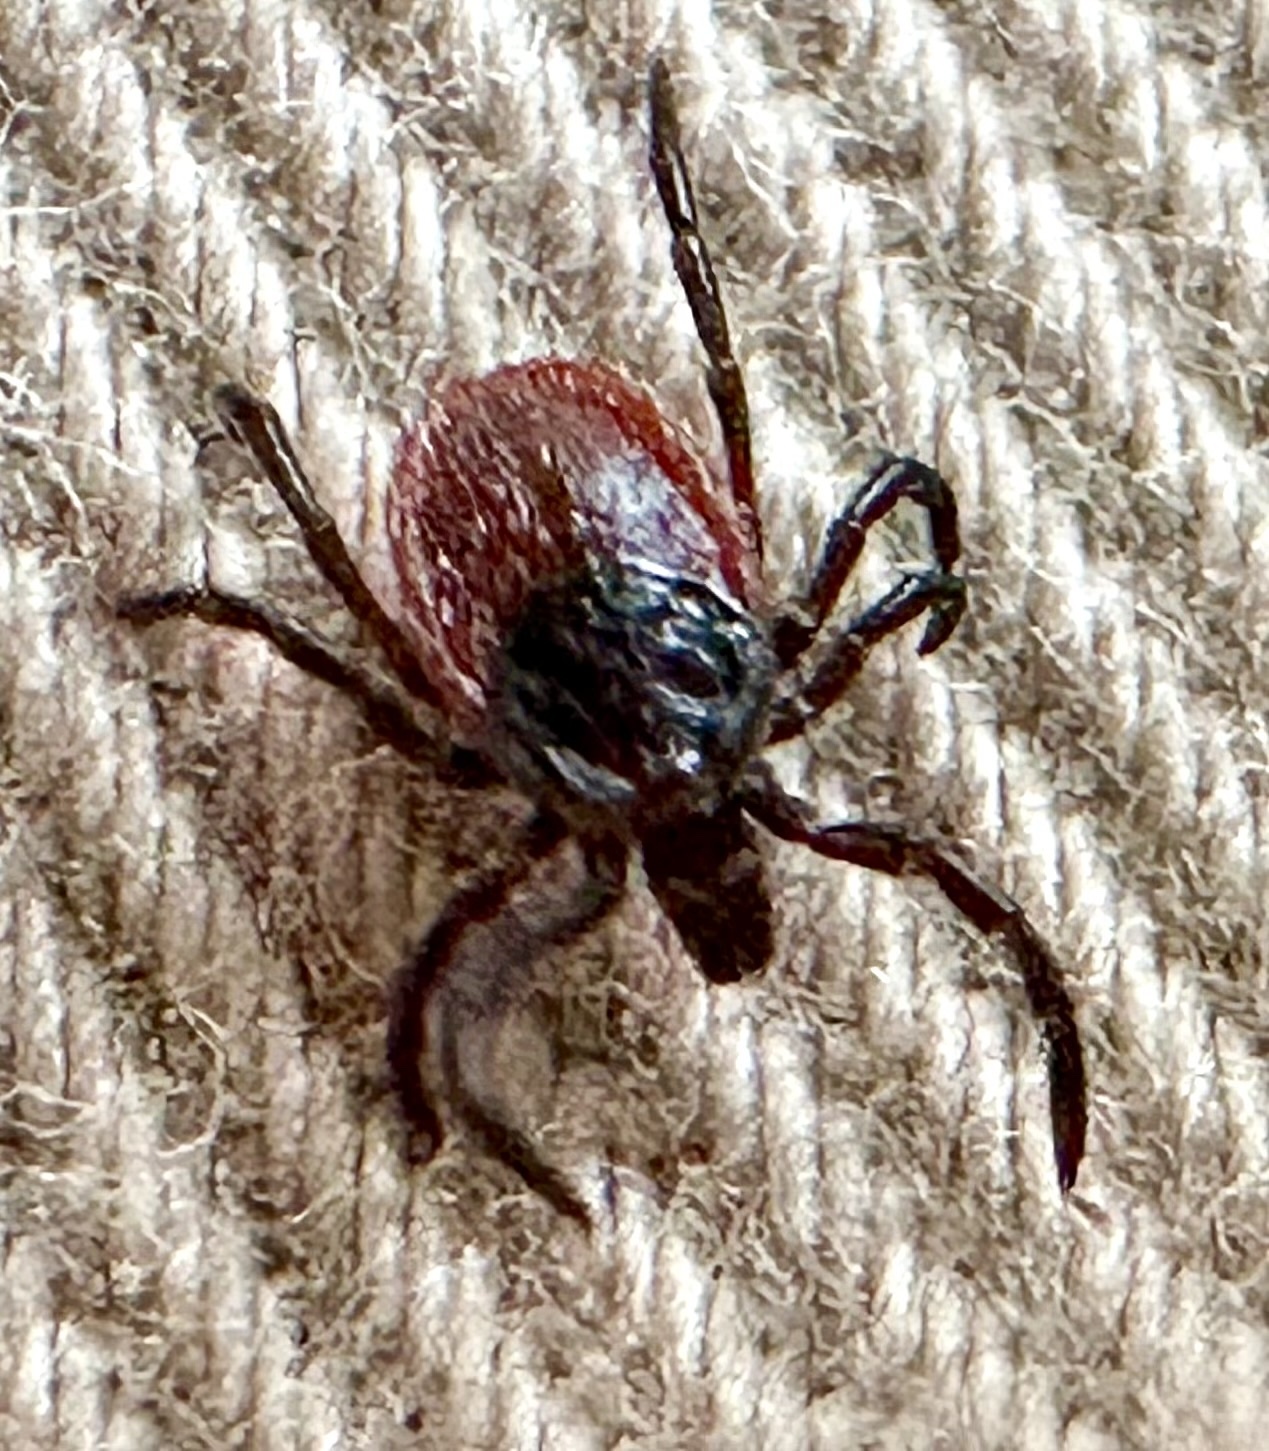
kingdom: Animalia
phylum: Arthropoda
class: Arachnida
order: Ixodida
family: Ixodidae
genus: Ixodes
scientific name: Ixodes pacificus
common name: California black-legged tick
